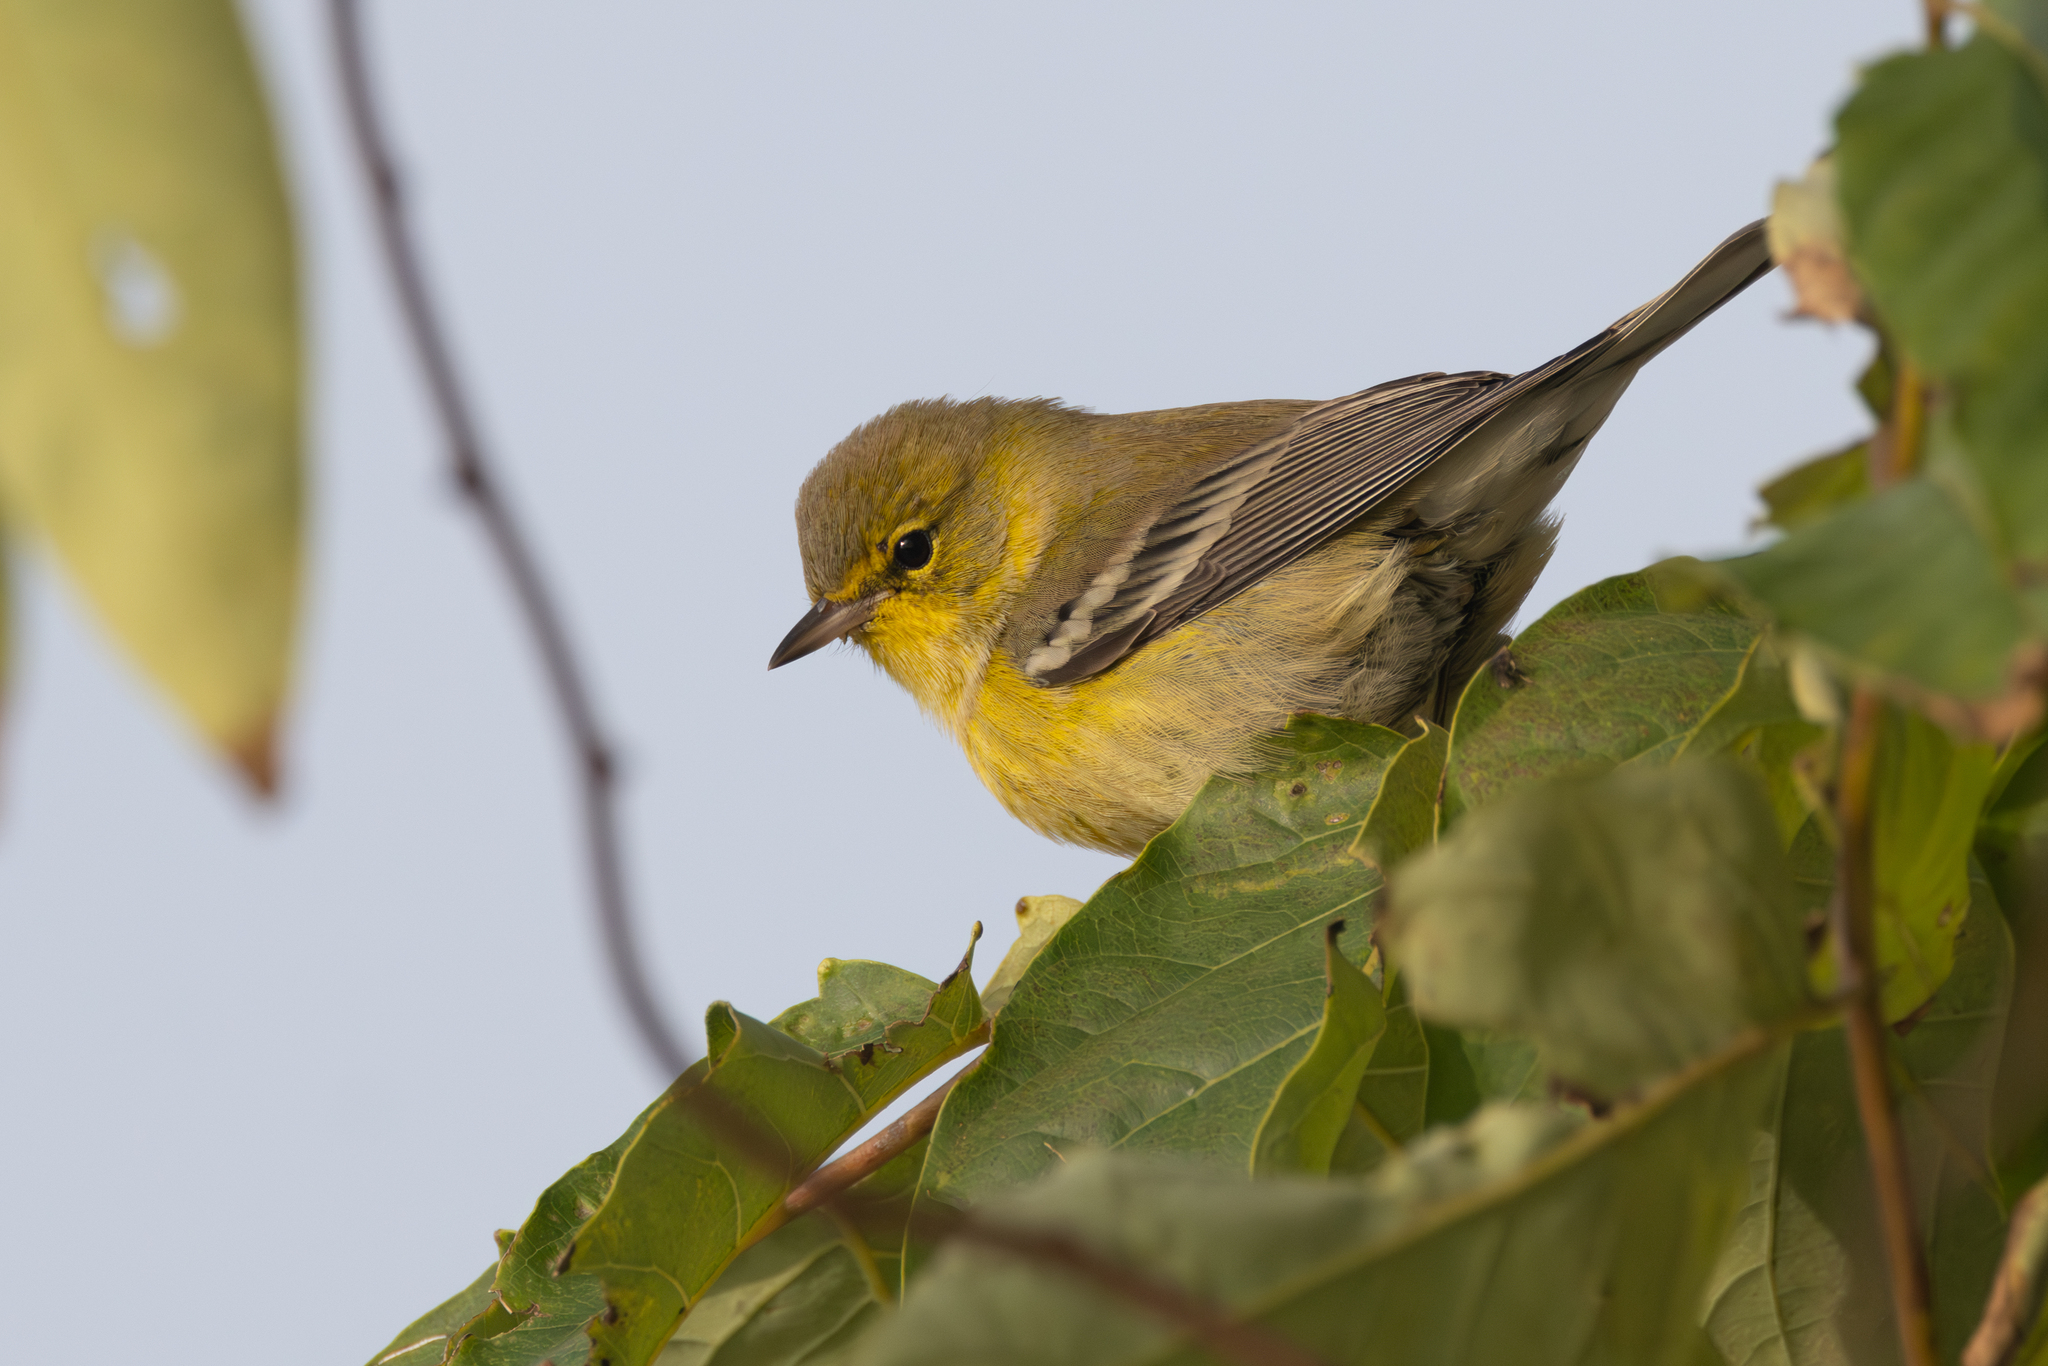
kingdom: Animalia
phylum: Chordata
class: Aves
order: Passeriformes
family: Parulidae
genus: Setophaga
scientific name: Setophaga pinus
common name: Pine warbler
